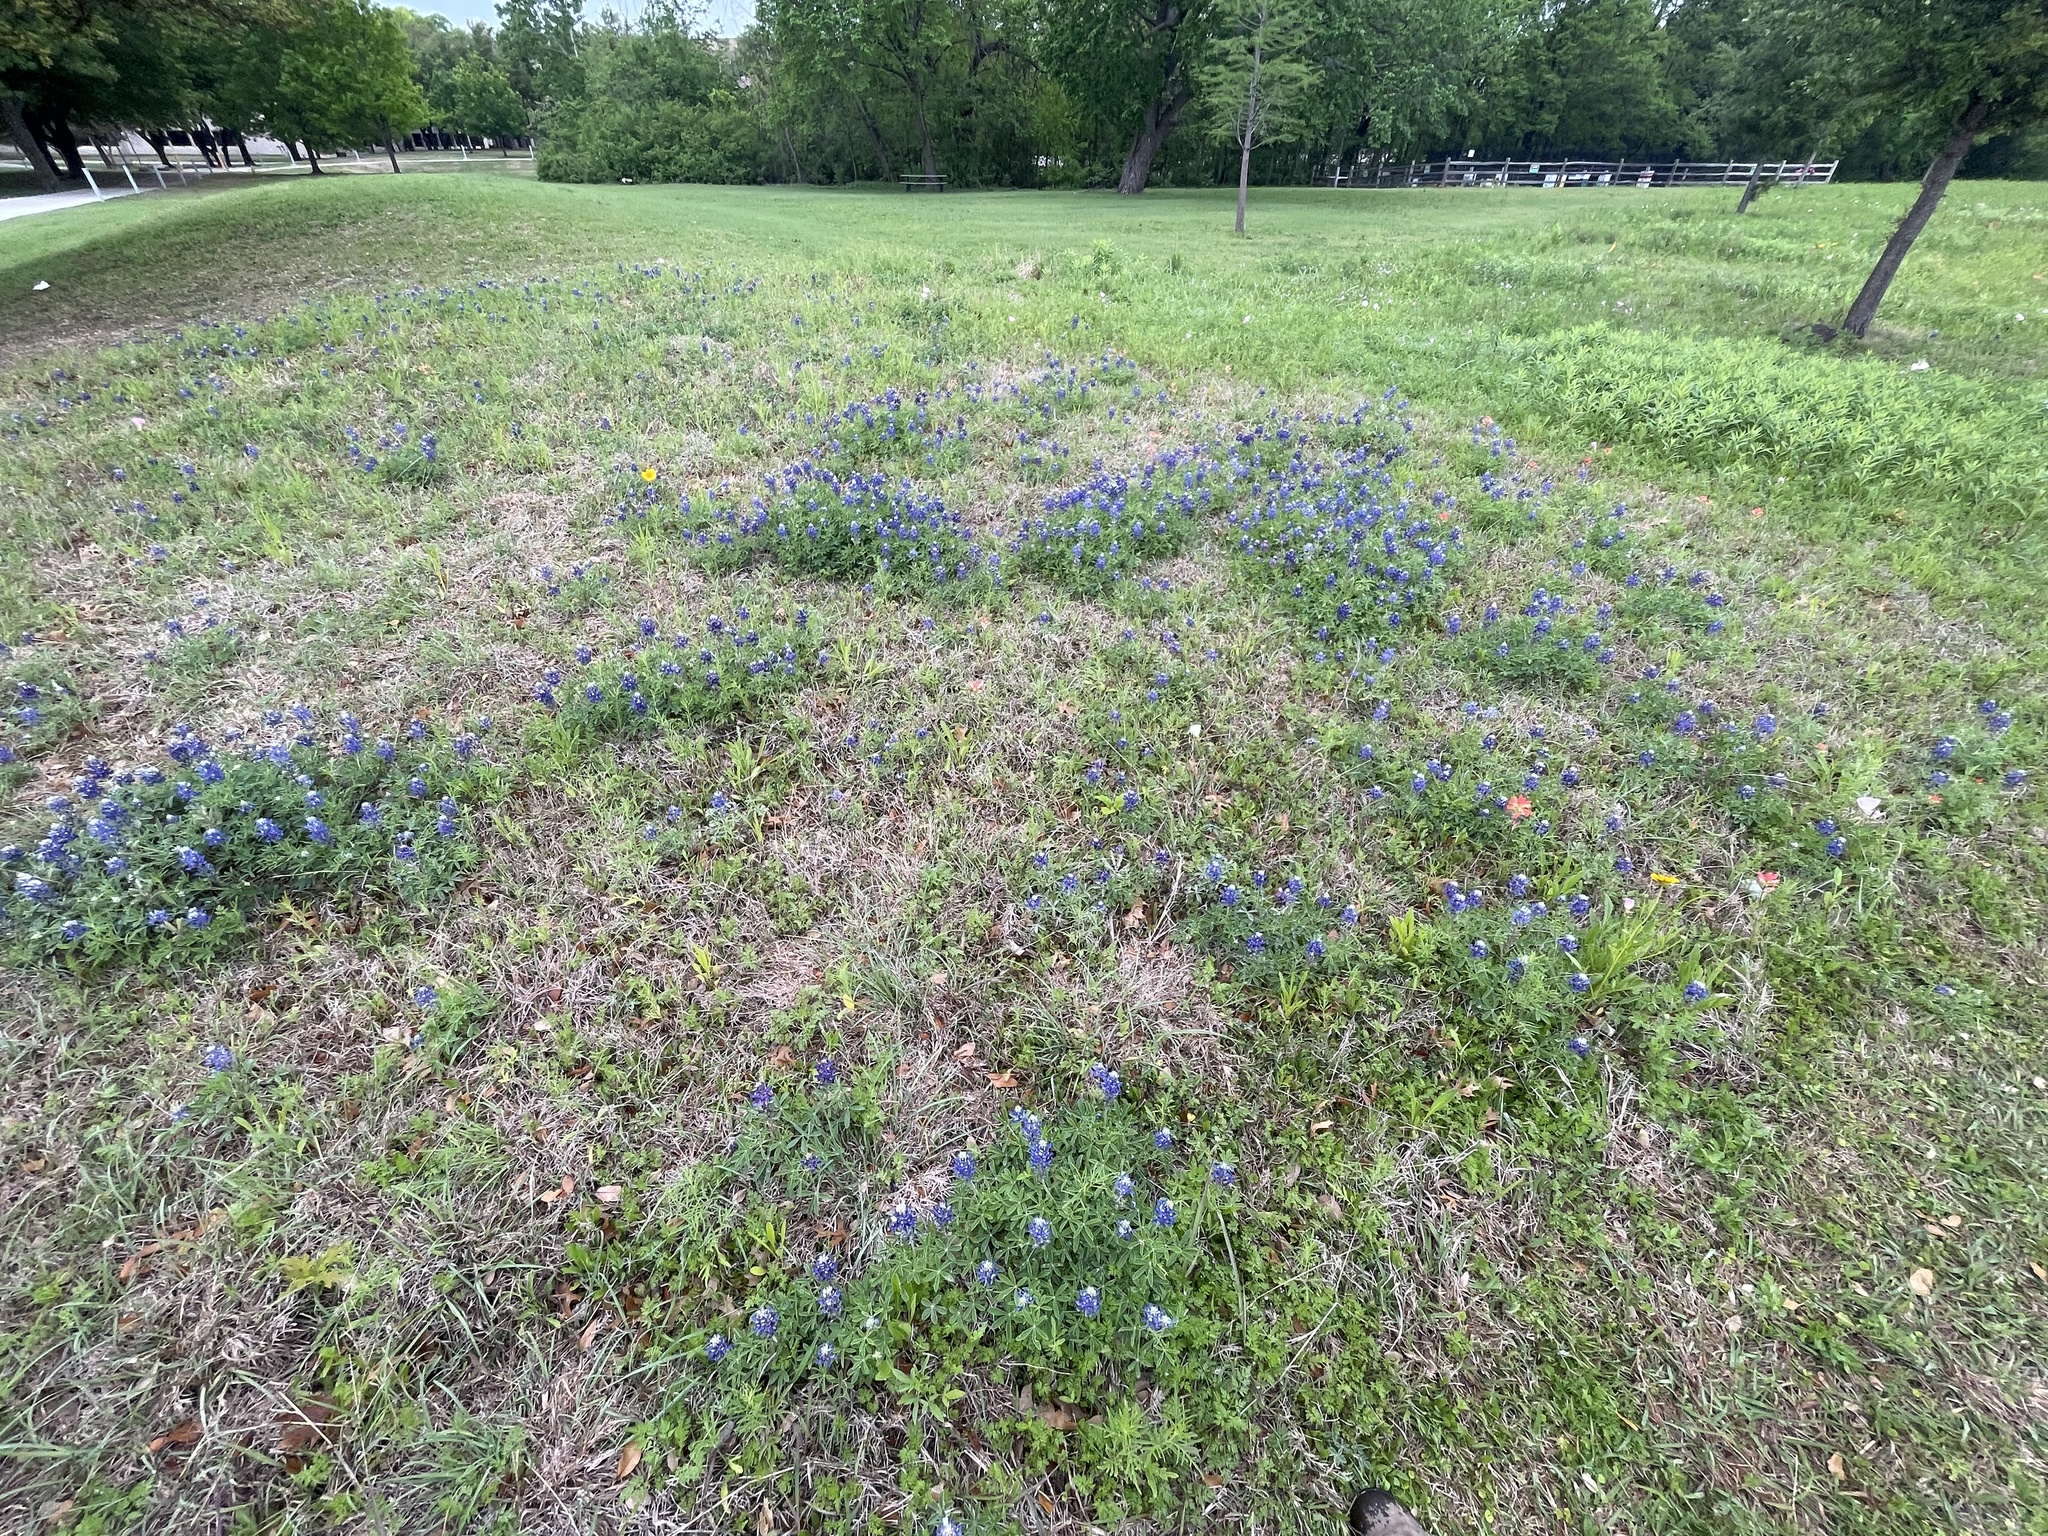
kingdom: Plantae
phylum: Tracheophyta
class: Magnoliopsida
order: Fabales
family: Fabaceae
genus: Lupinus
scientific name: Lupinus texensis
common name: Texas bluebonnet
